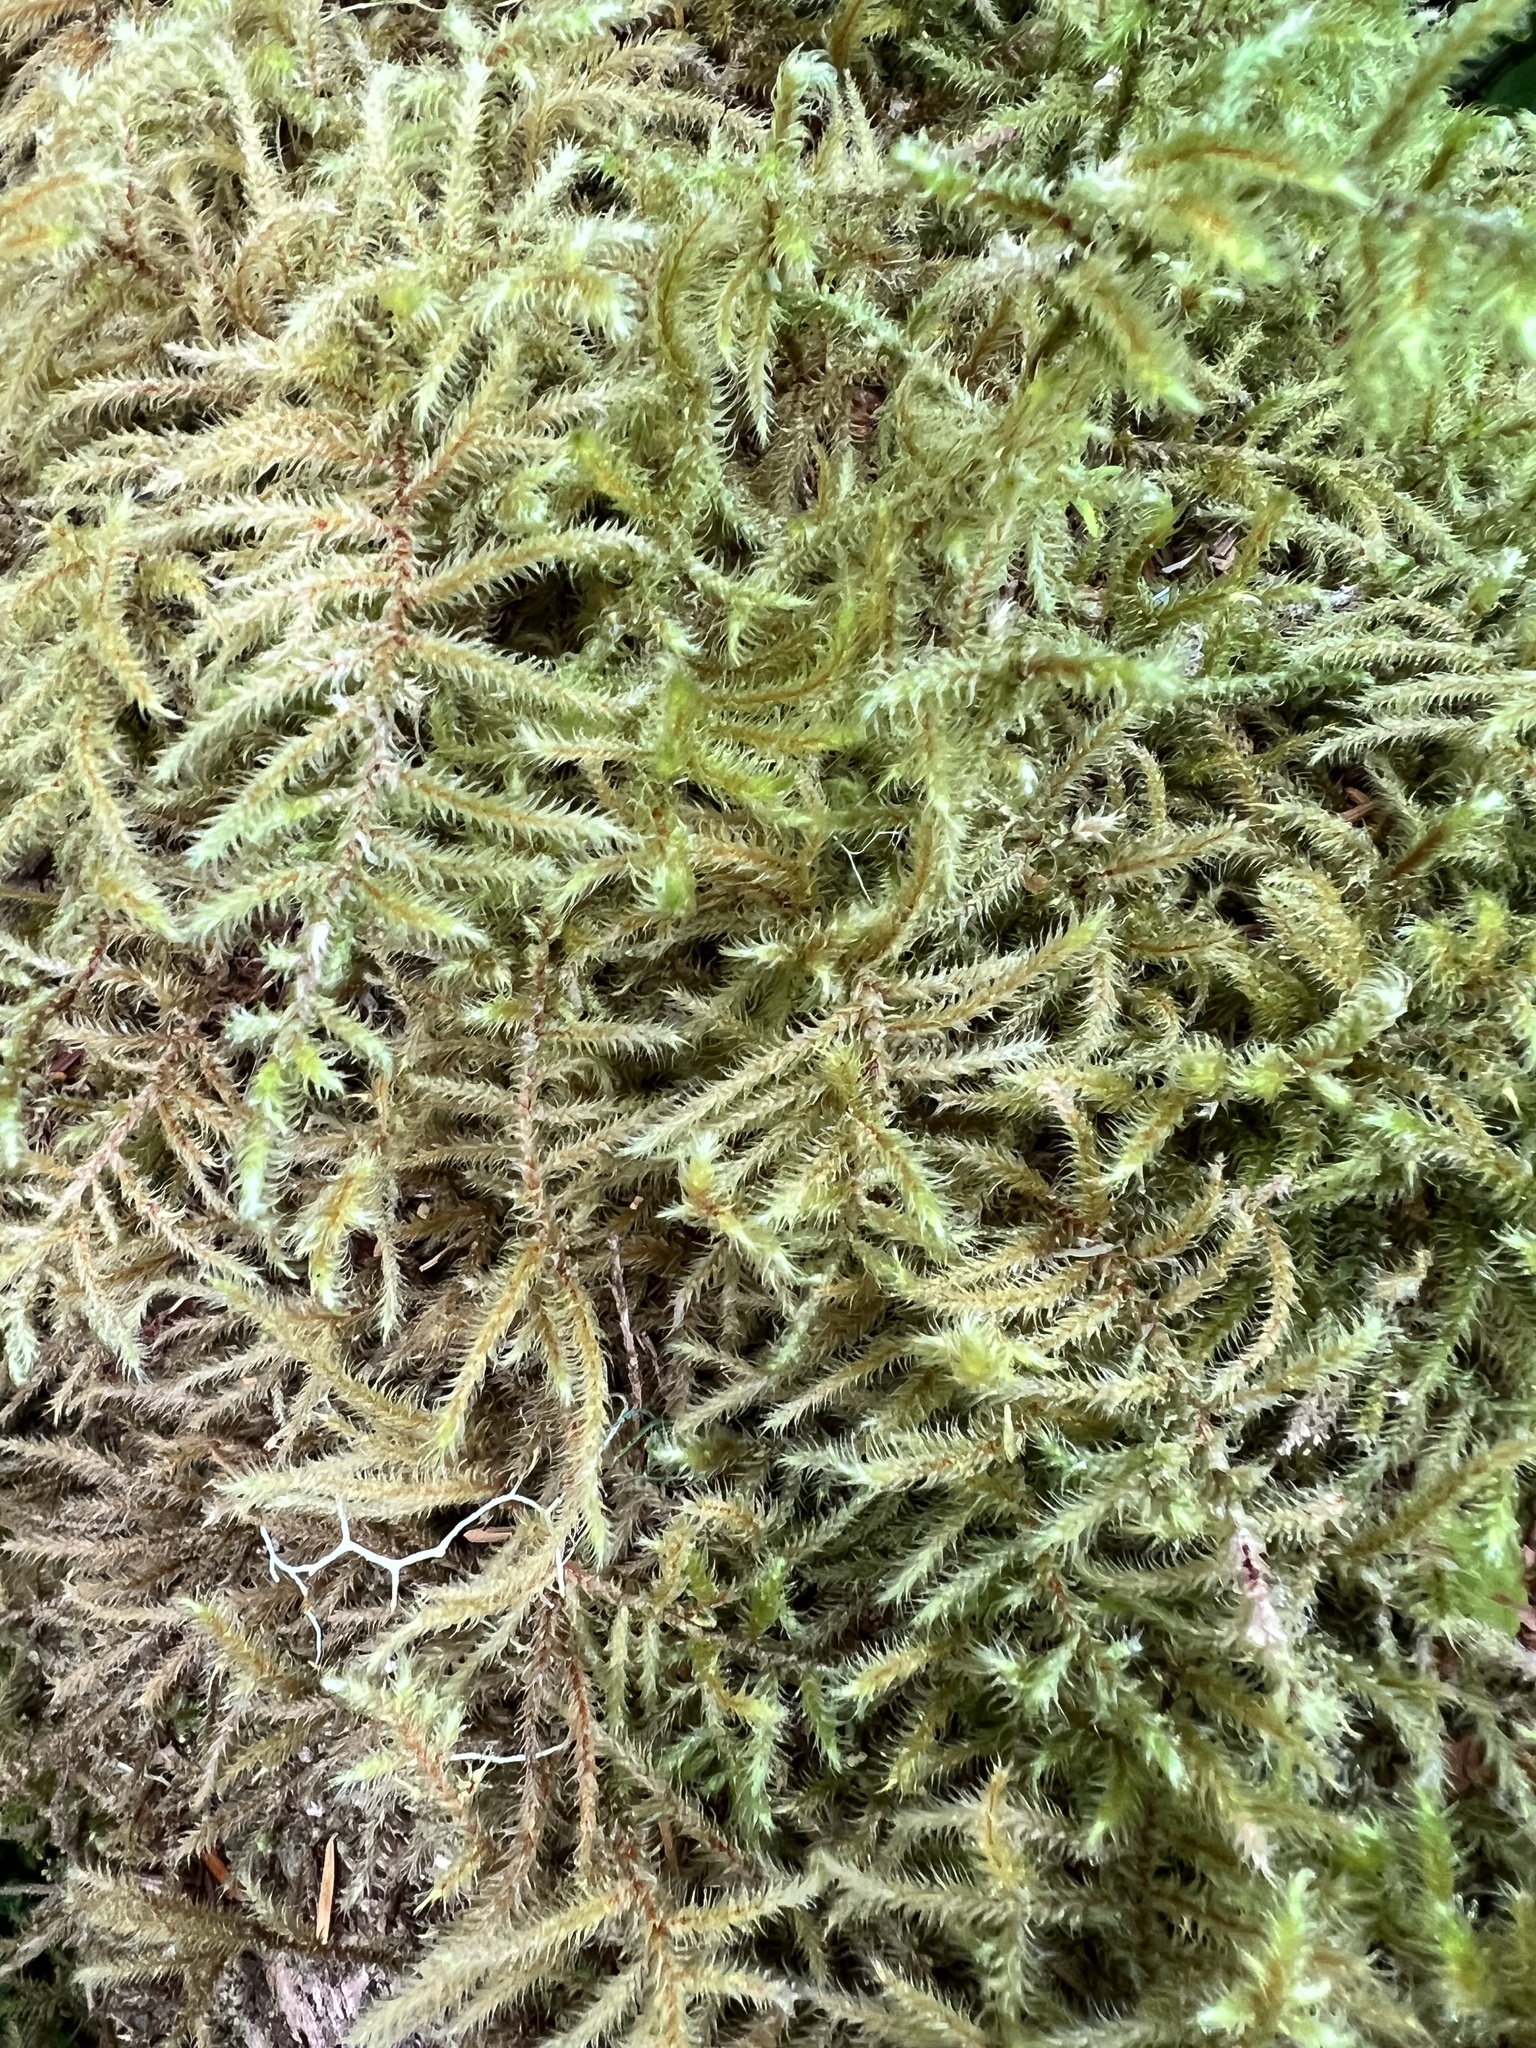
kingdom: Plantae
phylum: Bryophyta
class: Bryopsida
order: Hypnales
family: Hylocomiaceae
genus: Rhytidiadelphus
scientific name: Rhytidiadelphus loreus
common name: Lanky moss
